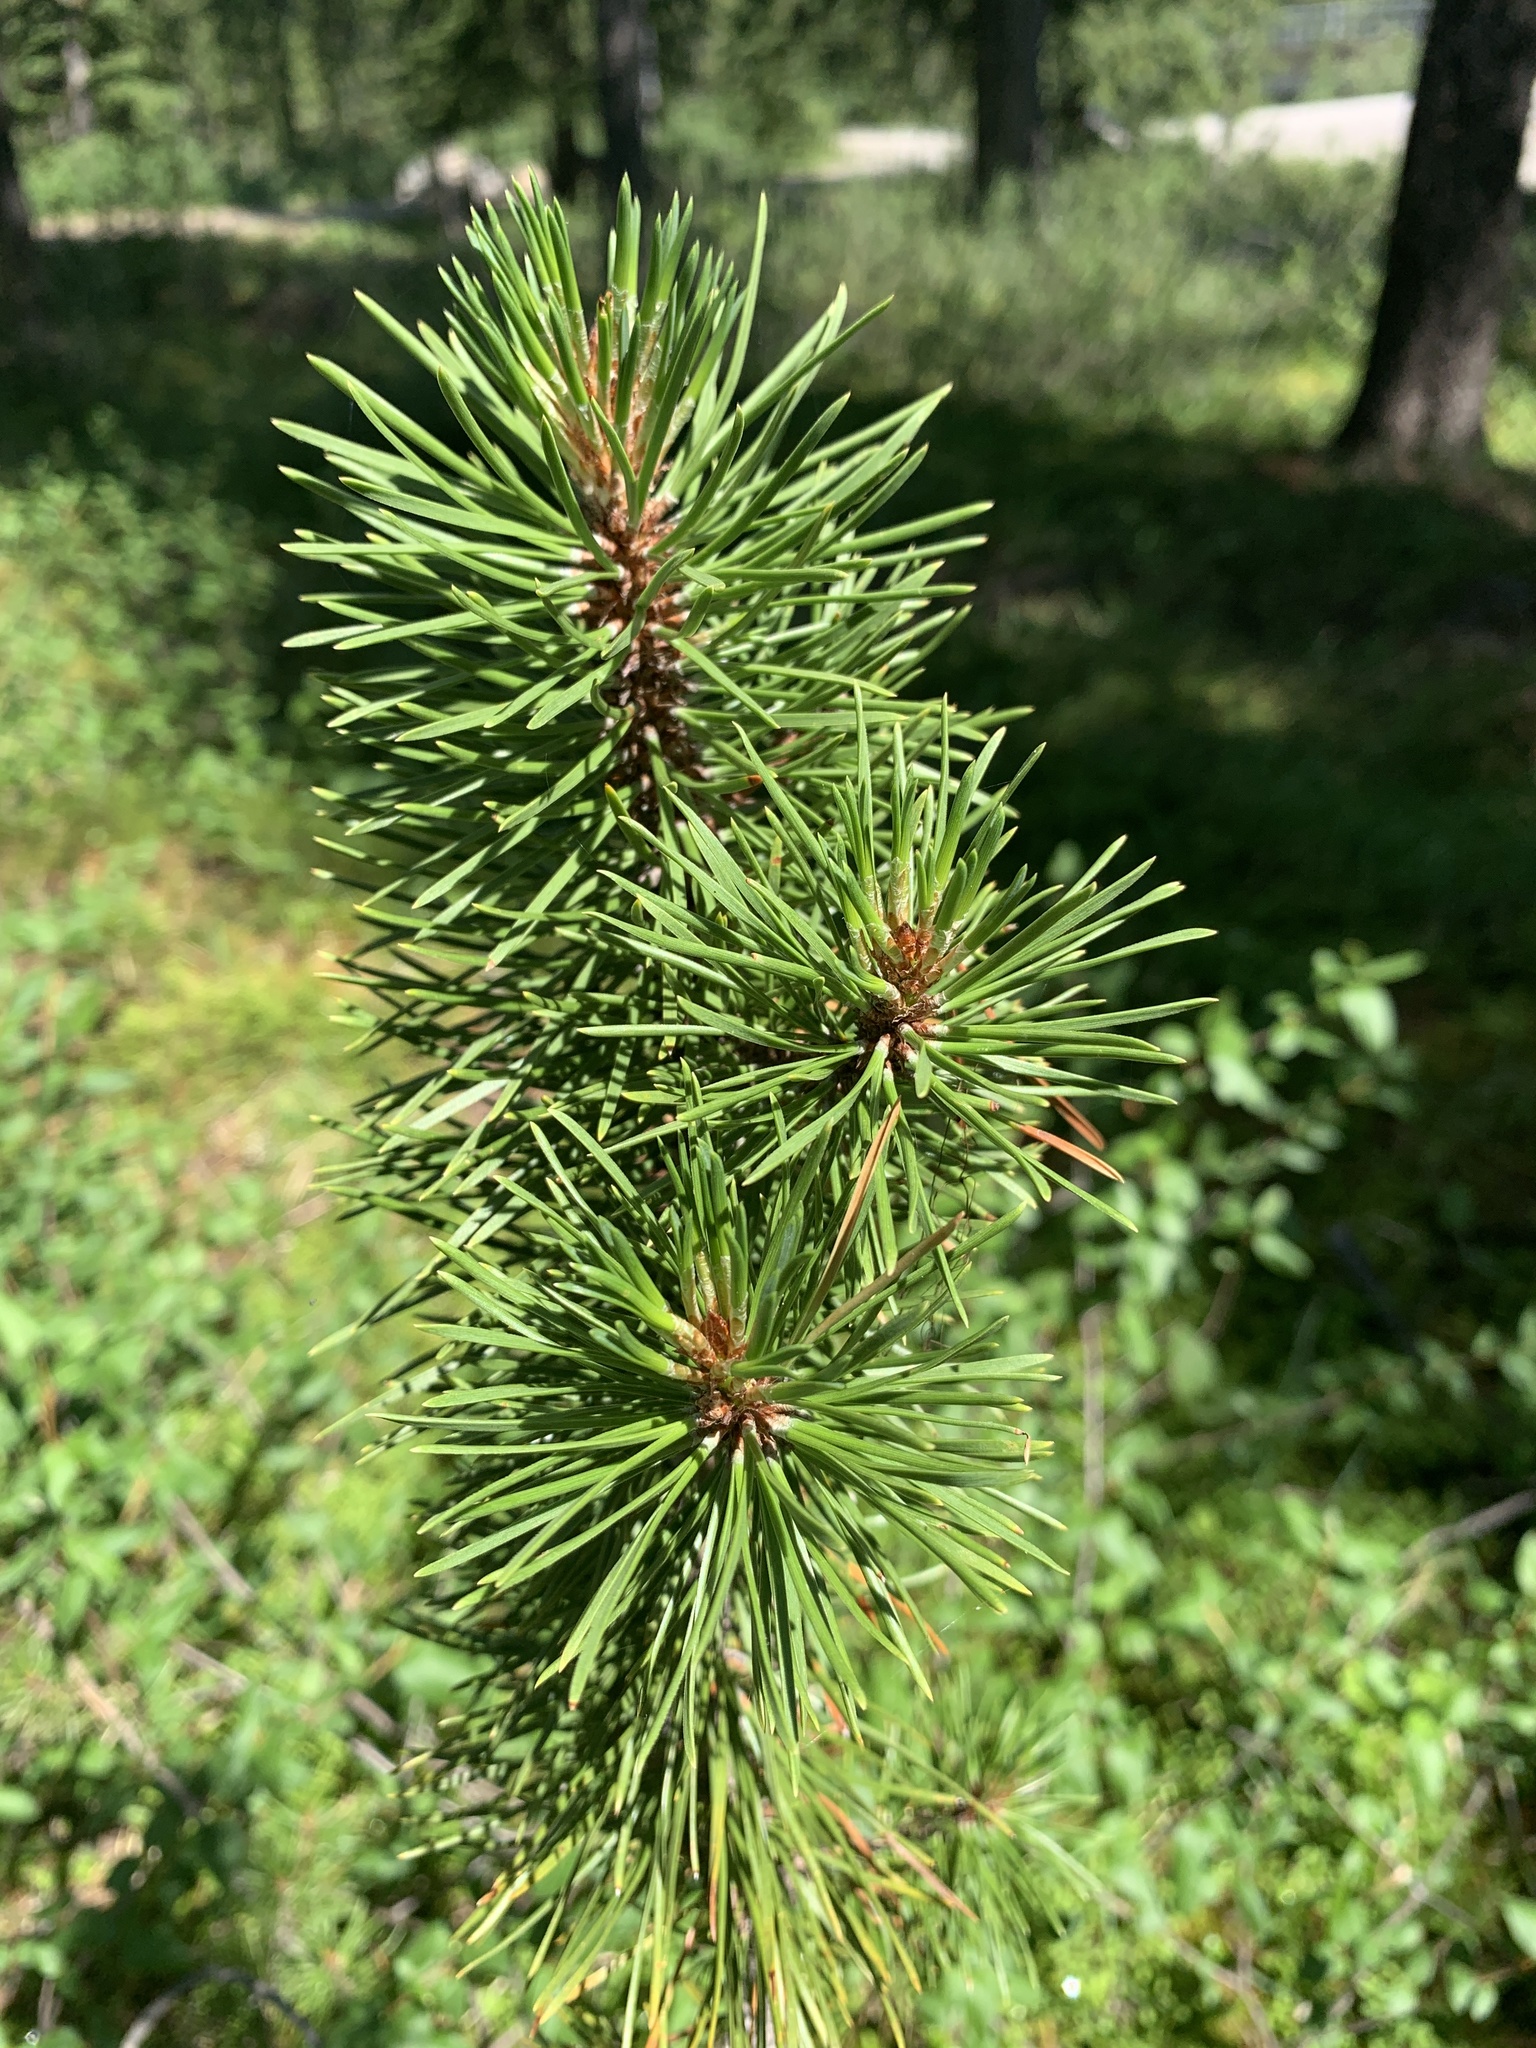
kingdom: Plantae
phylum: Tracheophyta
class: Pinopsida
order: Pinales
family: Pinaceae
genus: Pinus
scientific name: Pinus contorta
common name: Lodgepole pine
